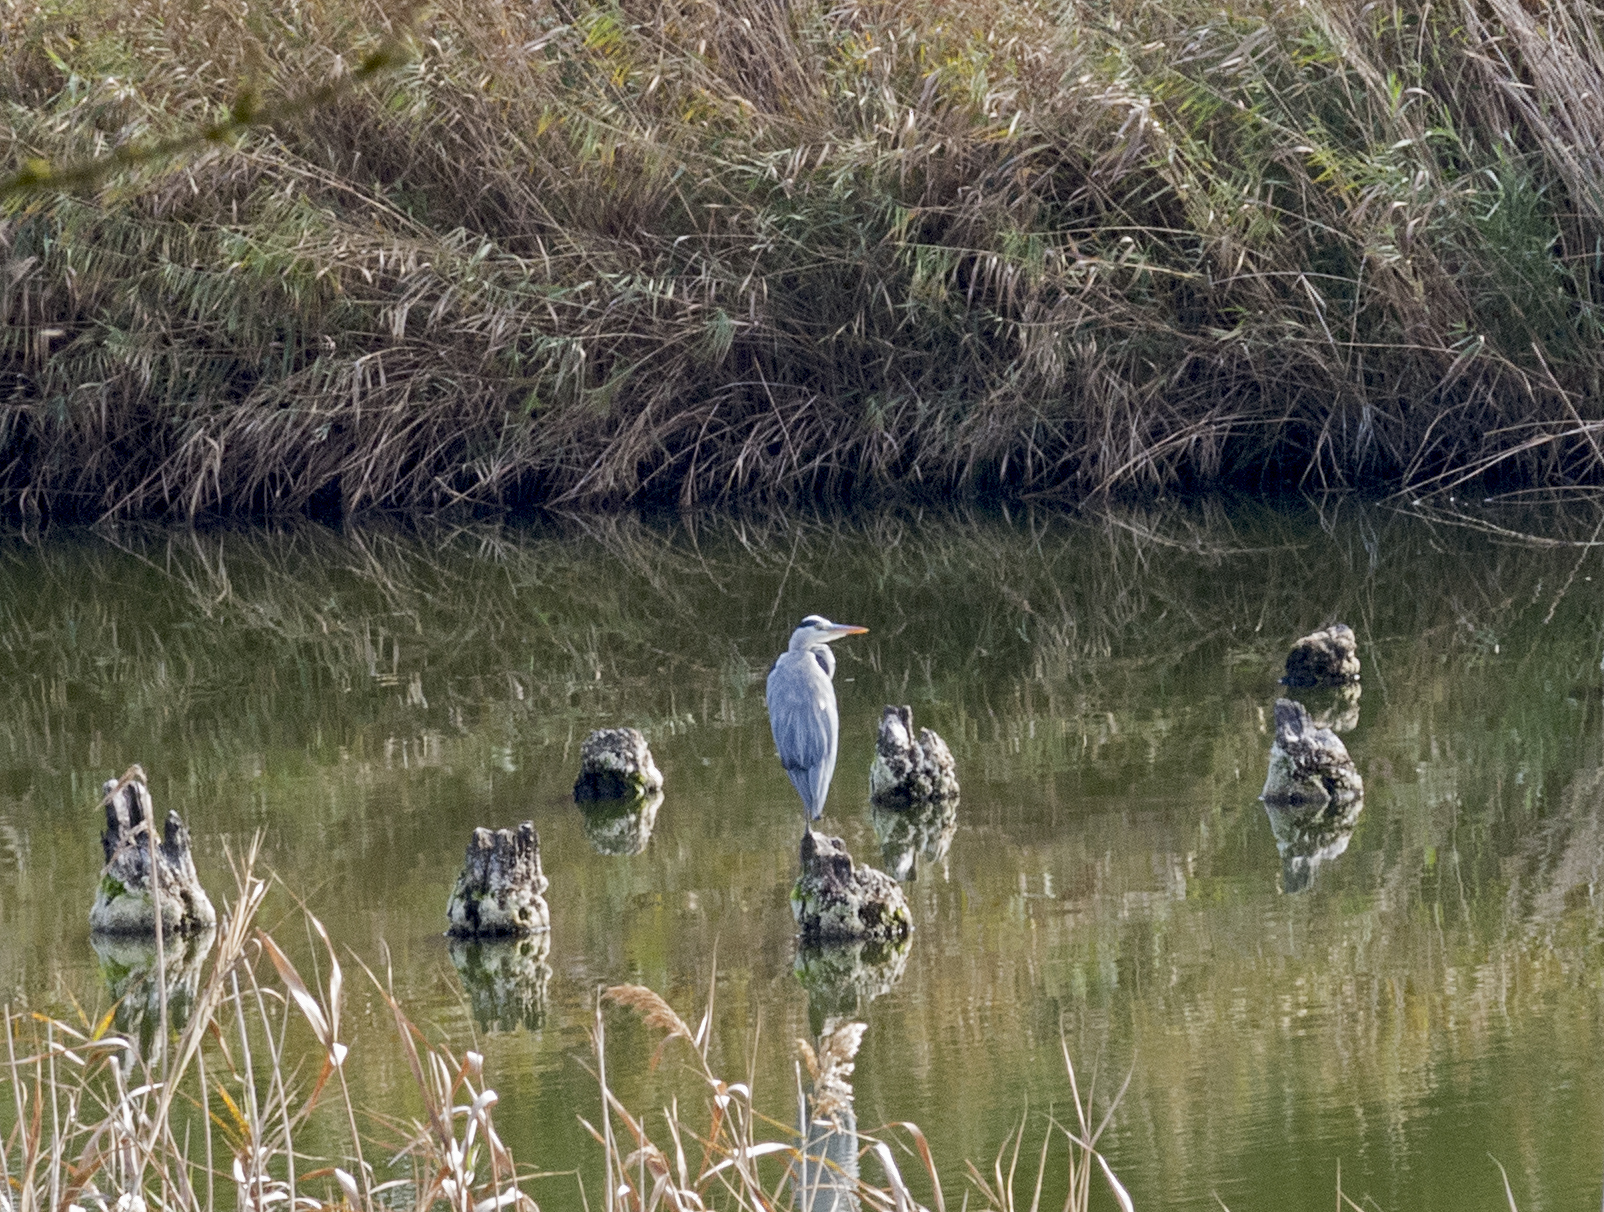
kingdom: Animalia
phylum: Chordata
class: Aves
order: Pelecaniformes
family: Ardeidae
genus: Ardea
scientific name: Ardea cinerea
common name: Grey heron
